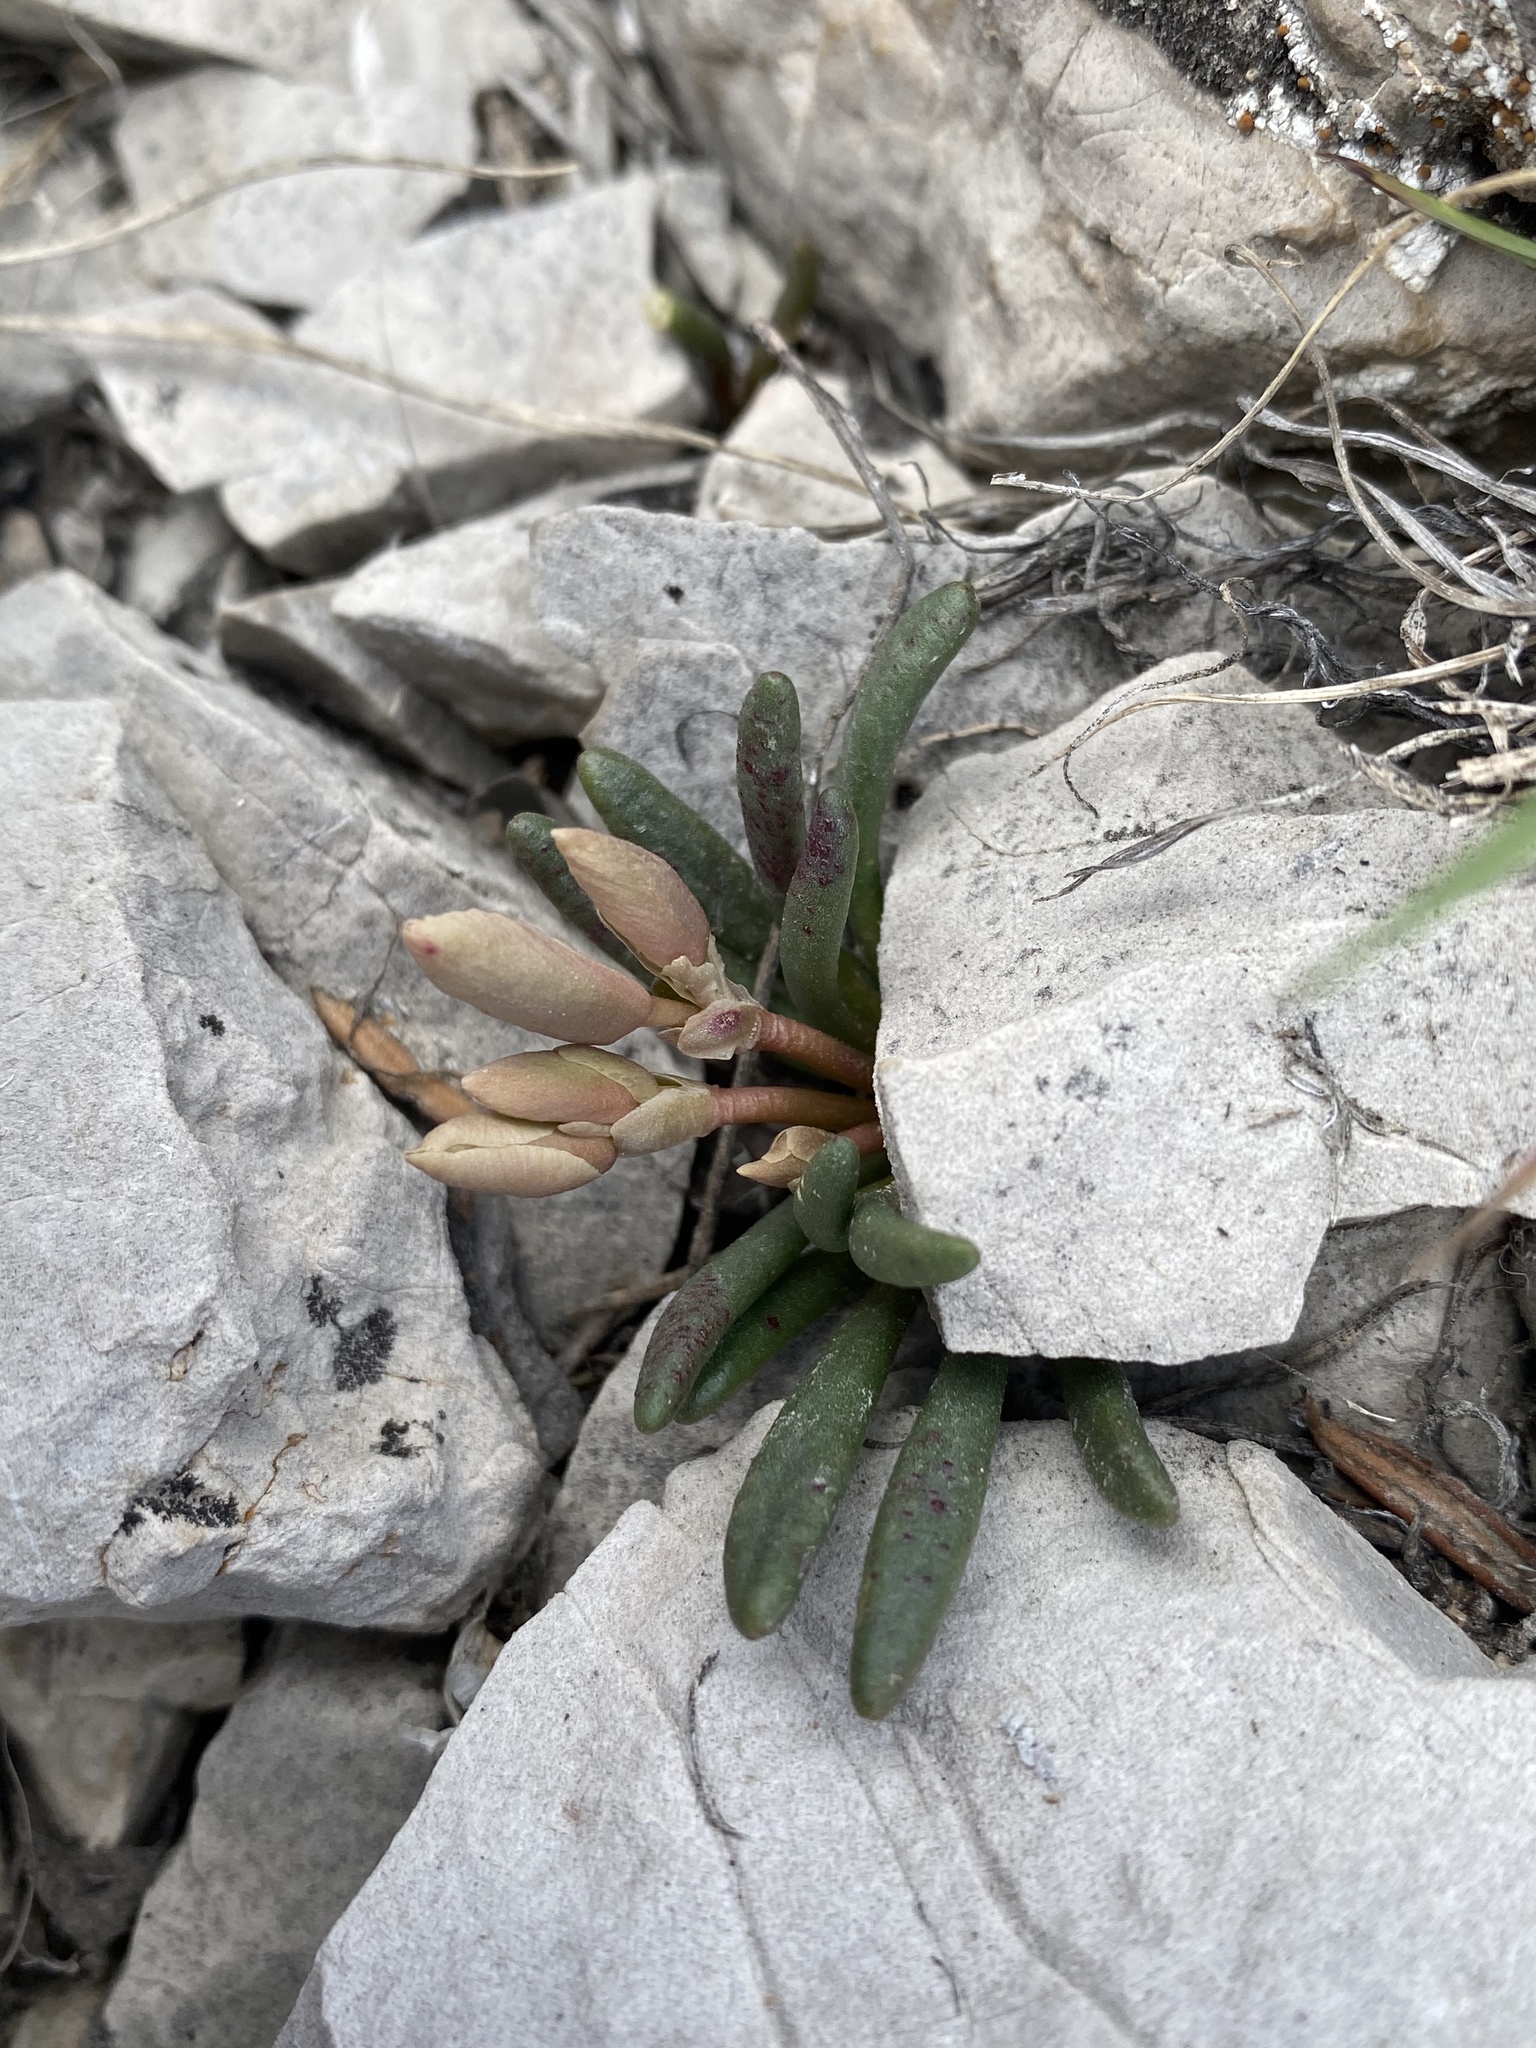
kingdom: Plantae
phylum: Tracheophyta
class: Magnoliopsida
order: Caryophyllales
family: Montiaceae
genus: Lewisia
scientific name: Lewisia maguirei
